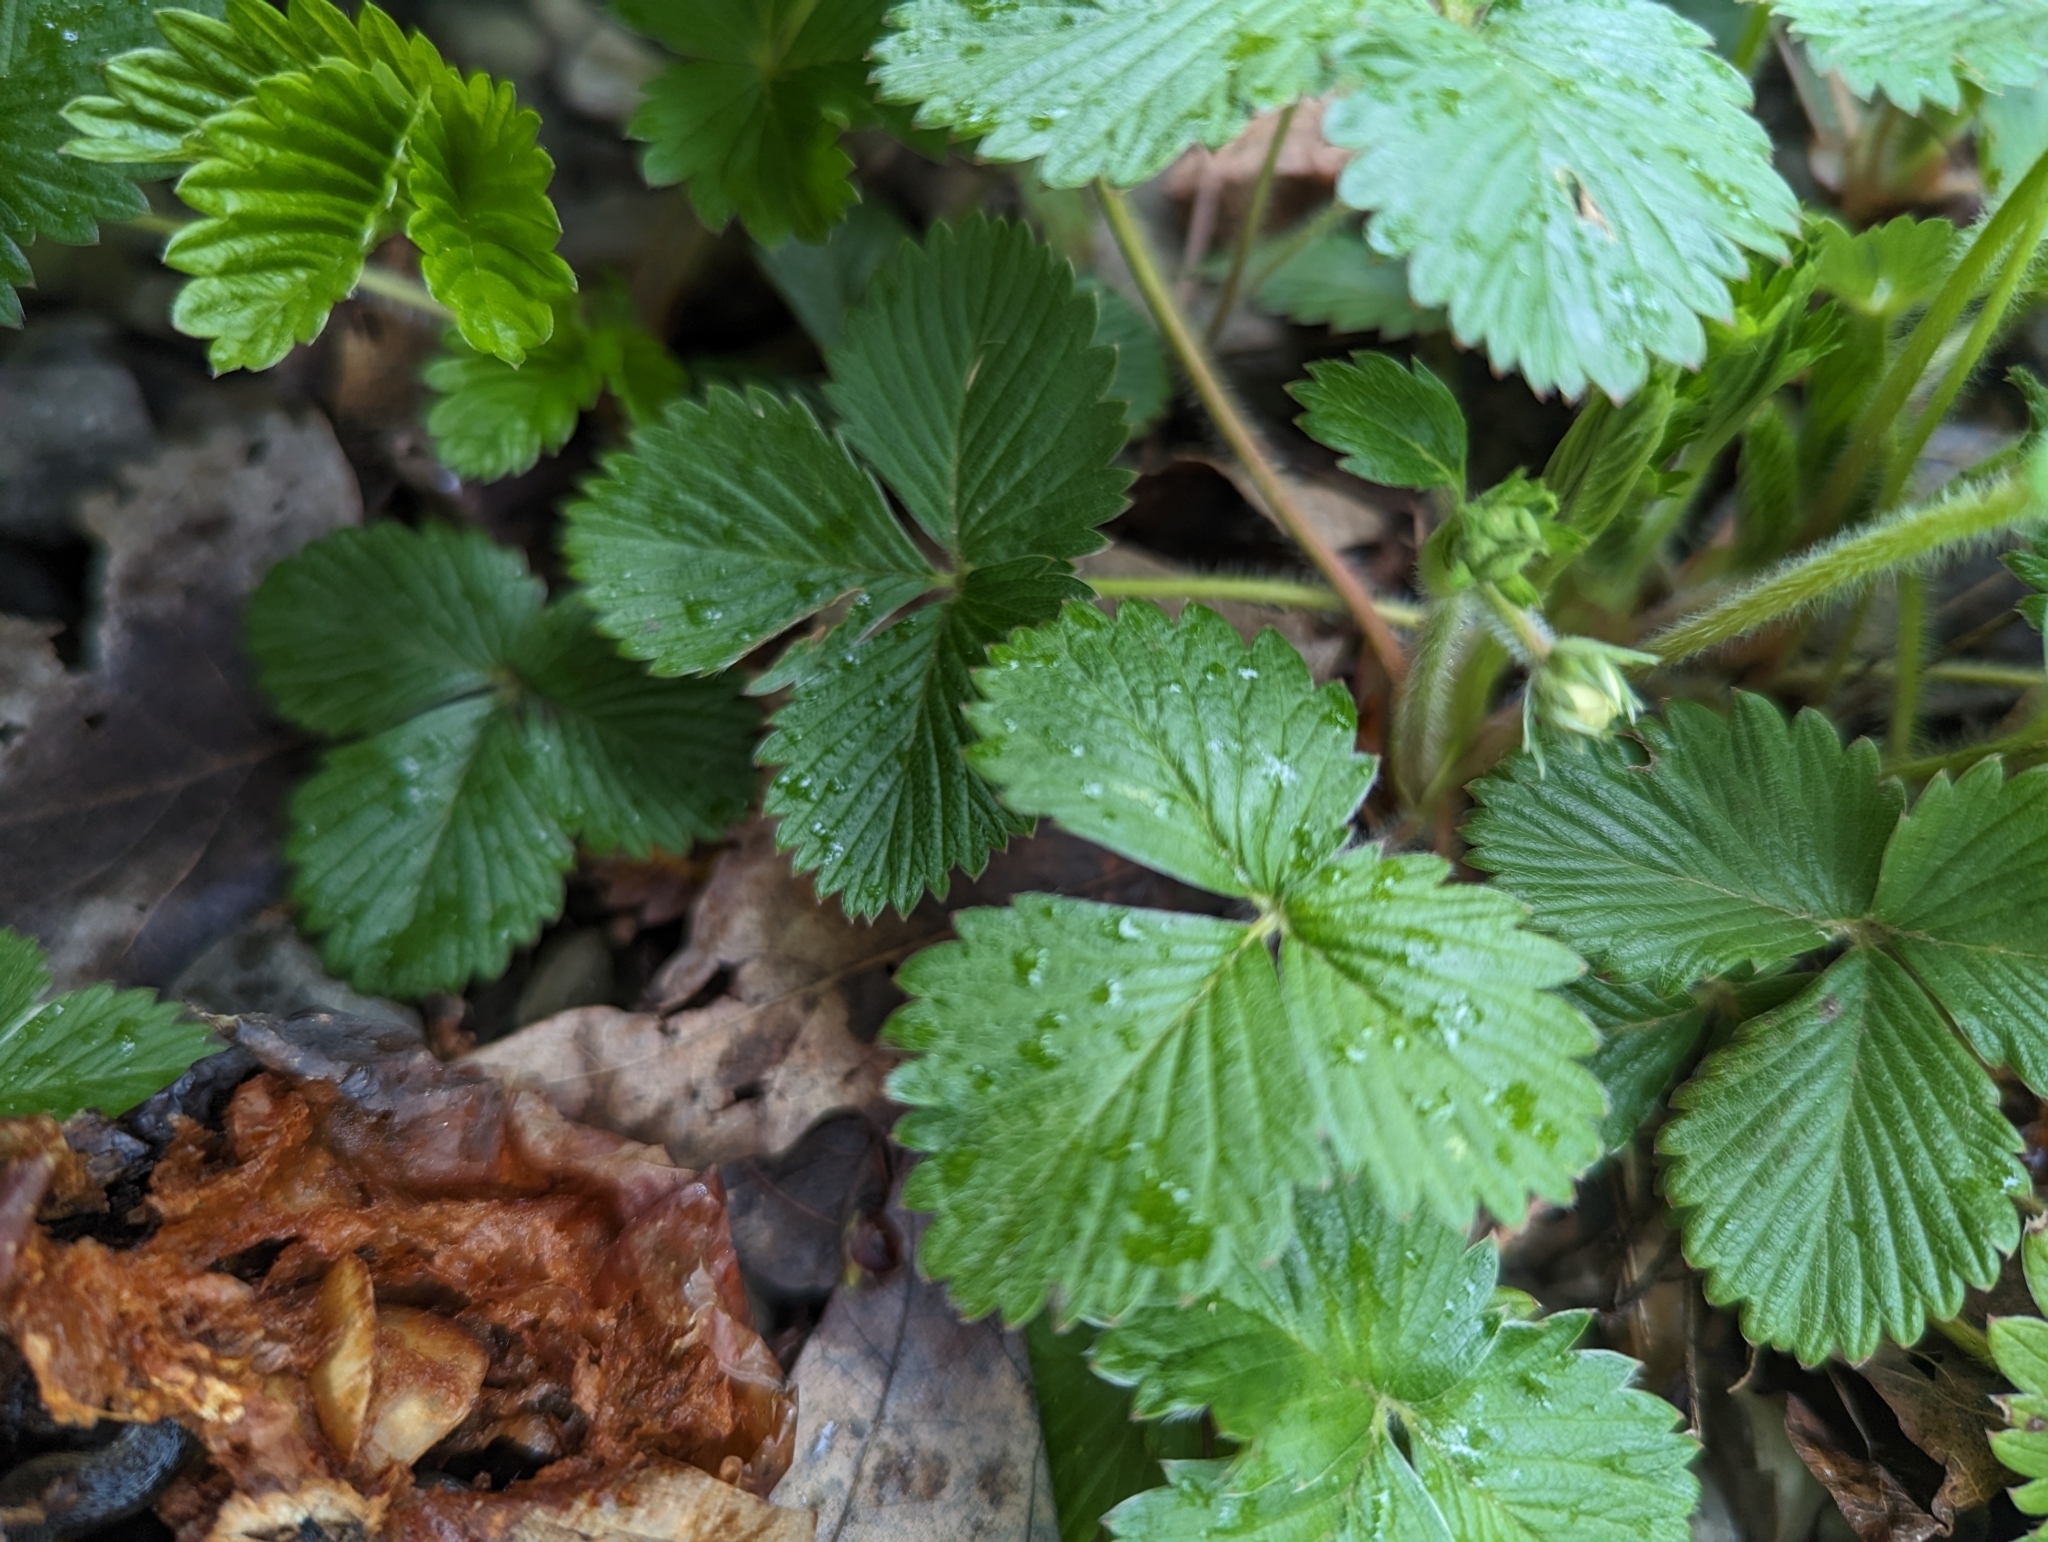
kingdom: Plantae
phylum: Tracheophyta
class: Magnoliopsida
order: Rosales
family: Rosaceae
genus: Fragaria
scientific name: Fragaria virginiana
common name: Thickleaved wild strawberry
